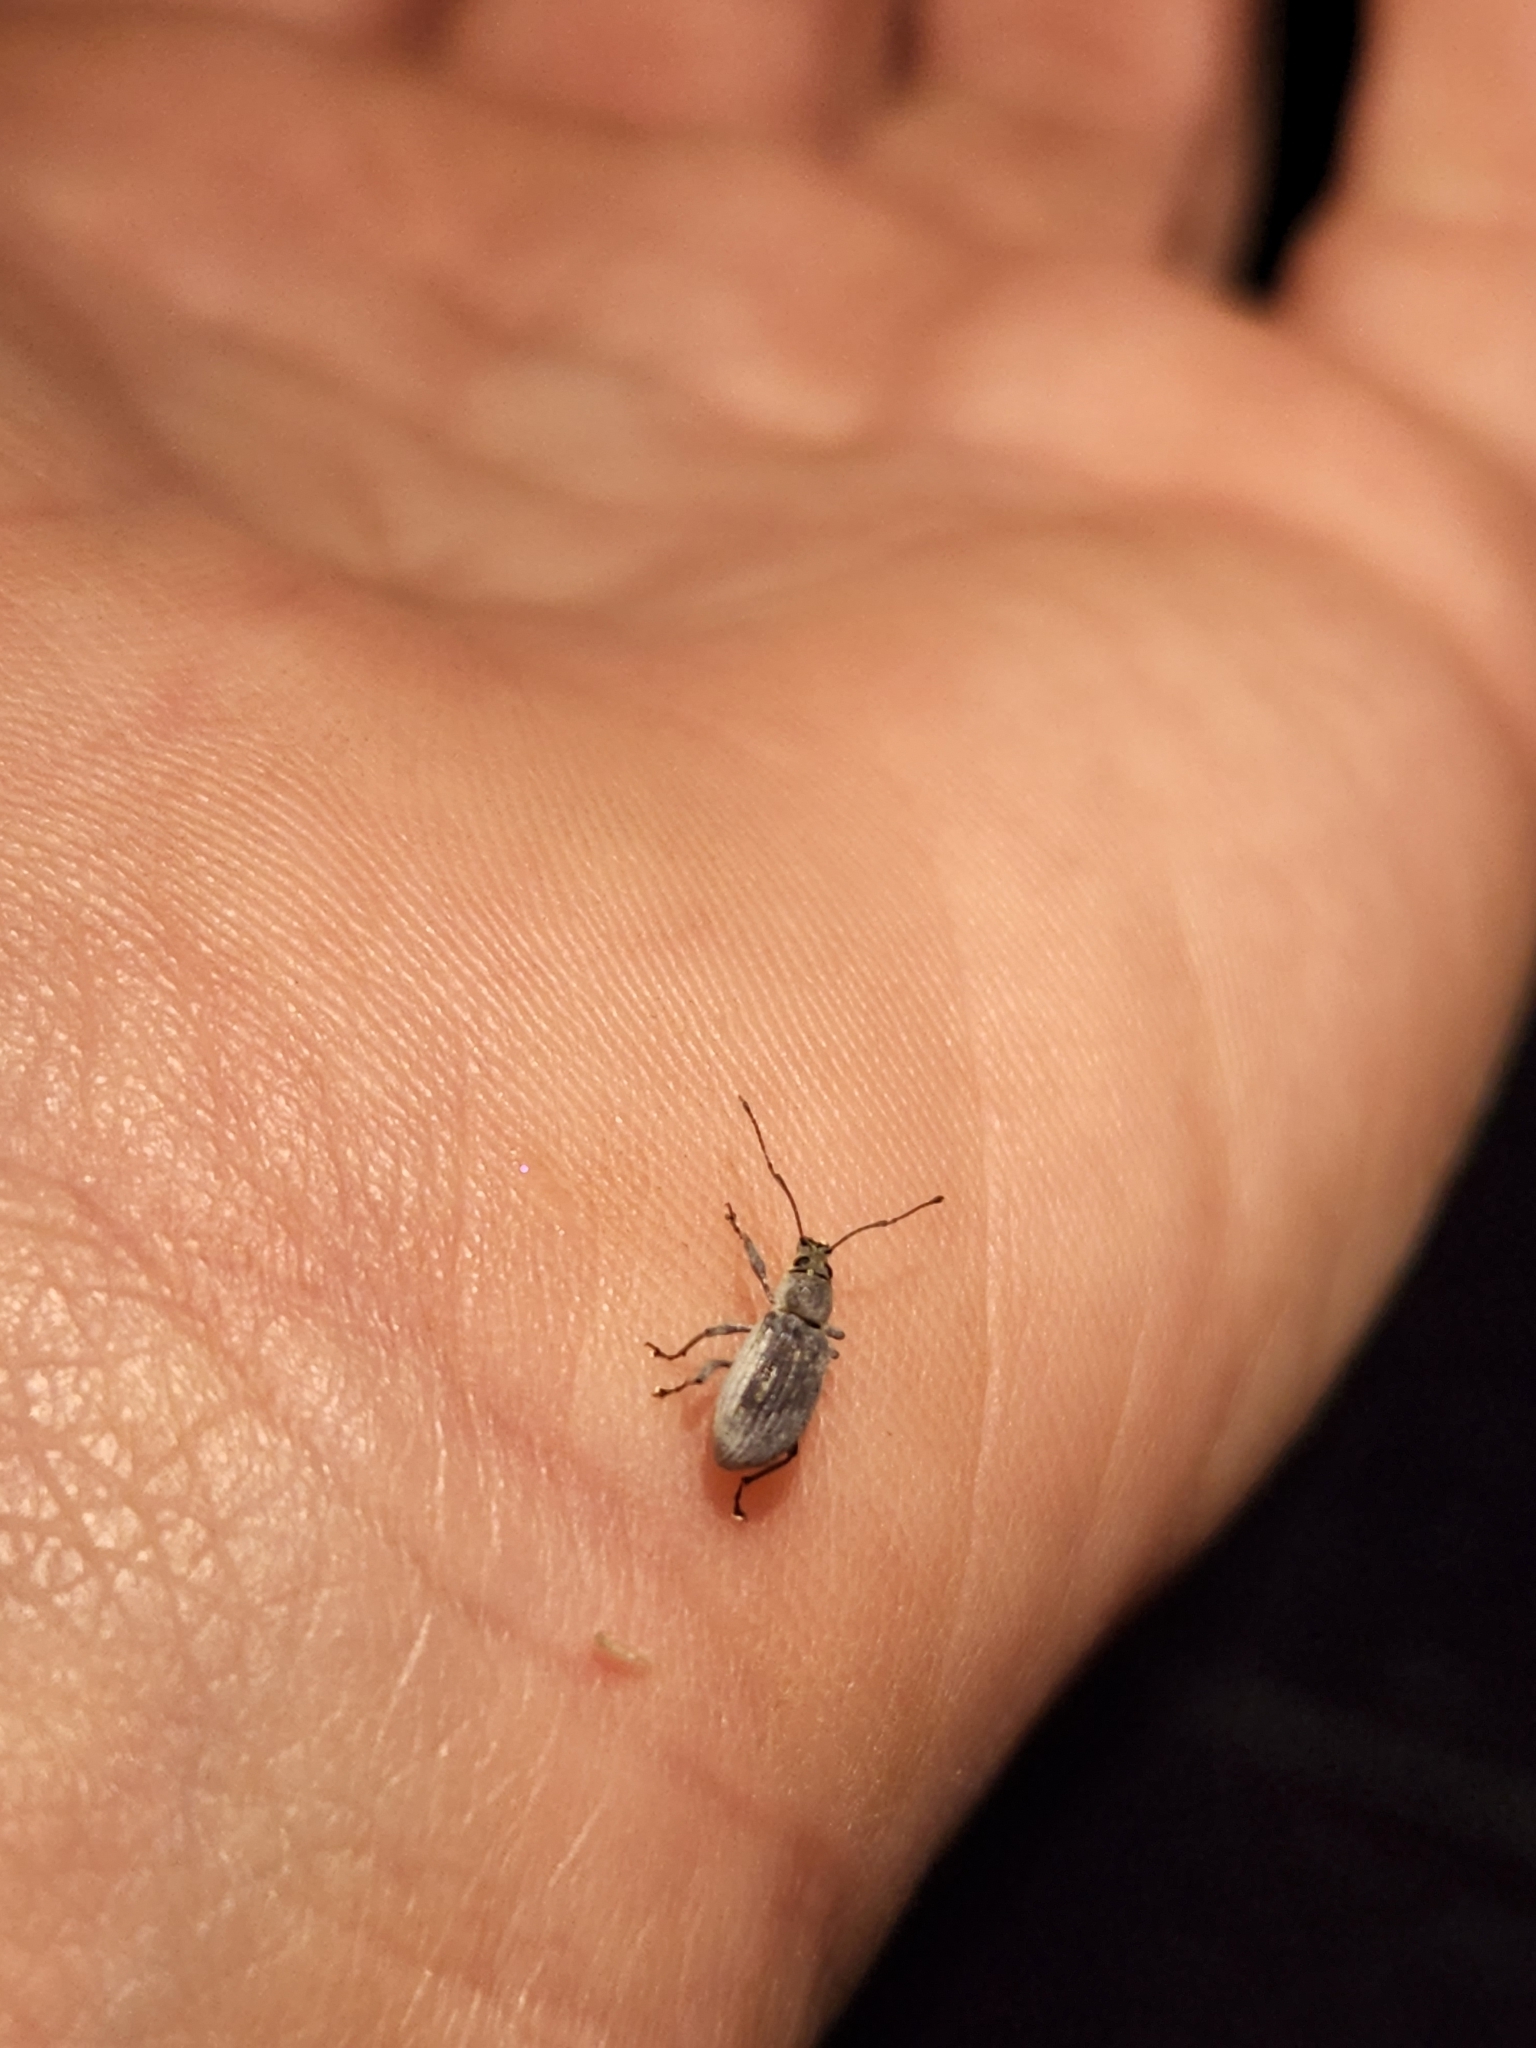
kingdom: Animalia
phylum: Arthropoda
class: Insecta
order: Coleoptera
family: Curculionidae
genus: Cyrtepistomus
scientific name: Cyrtepistomus castaneus
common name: Weevil
